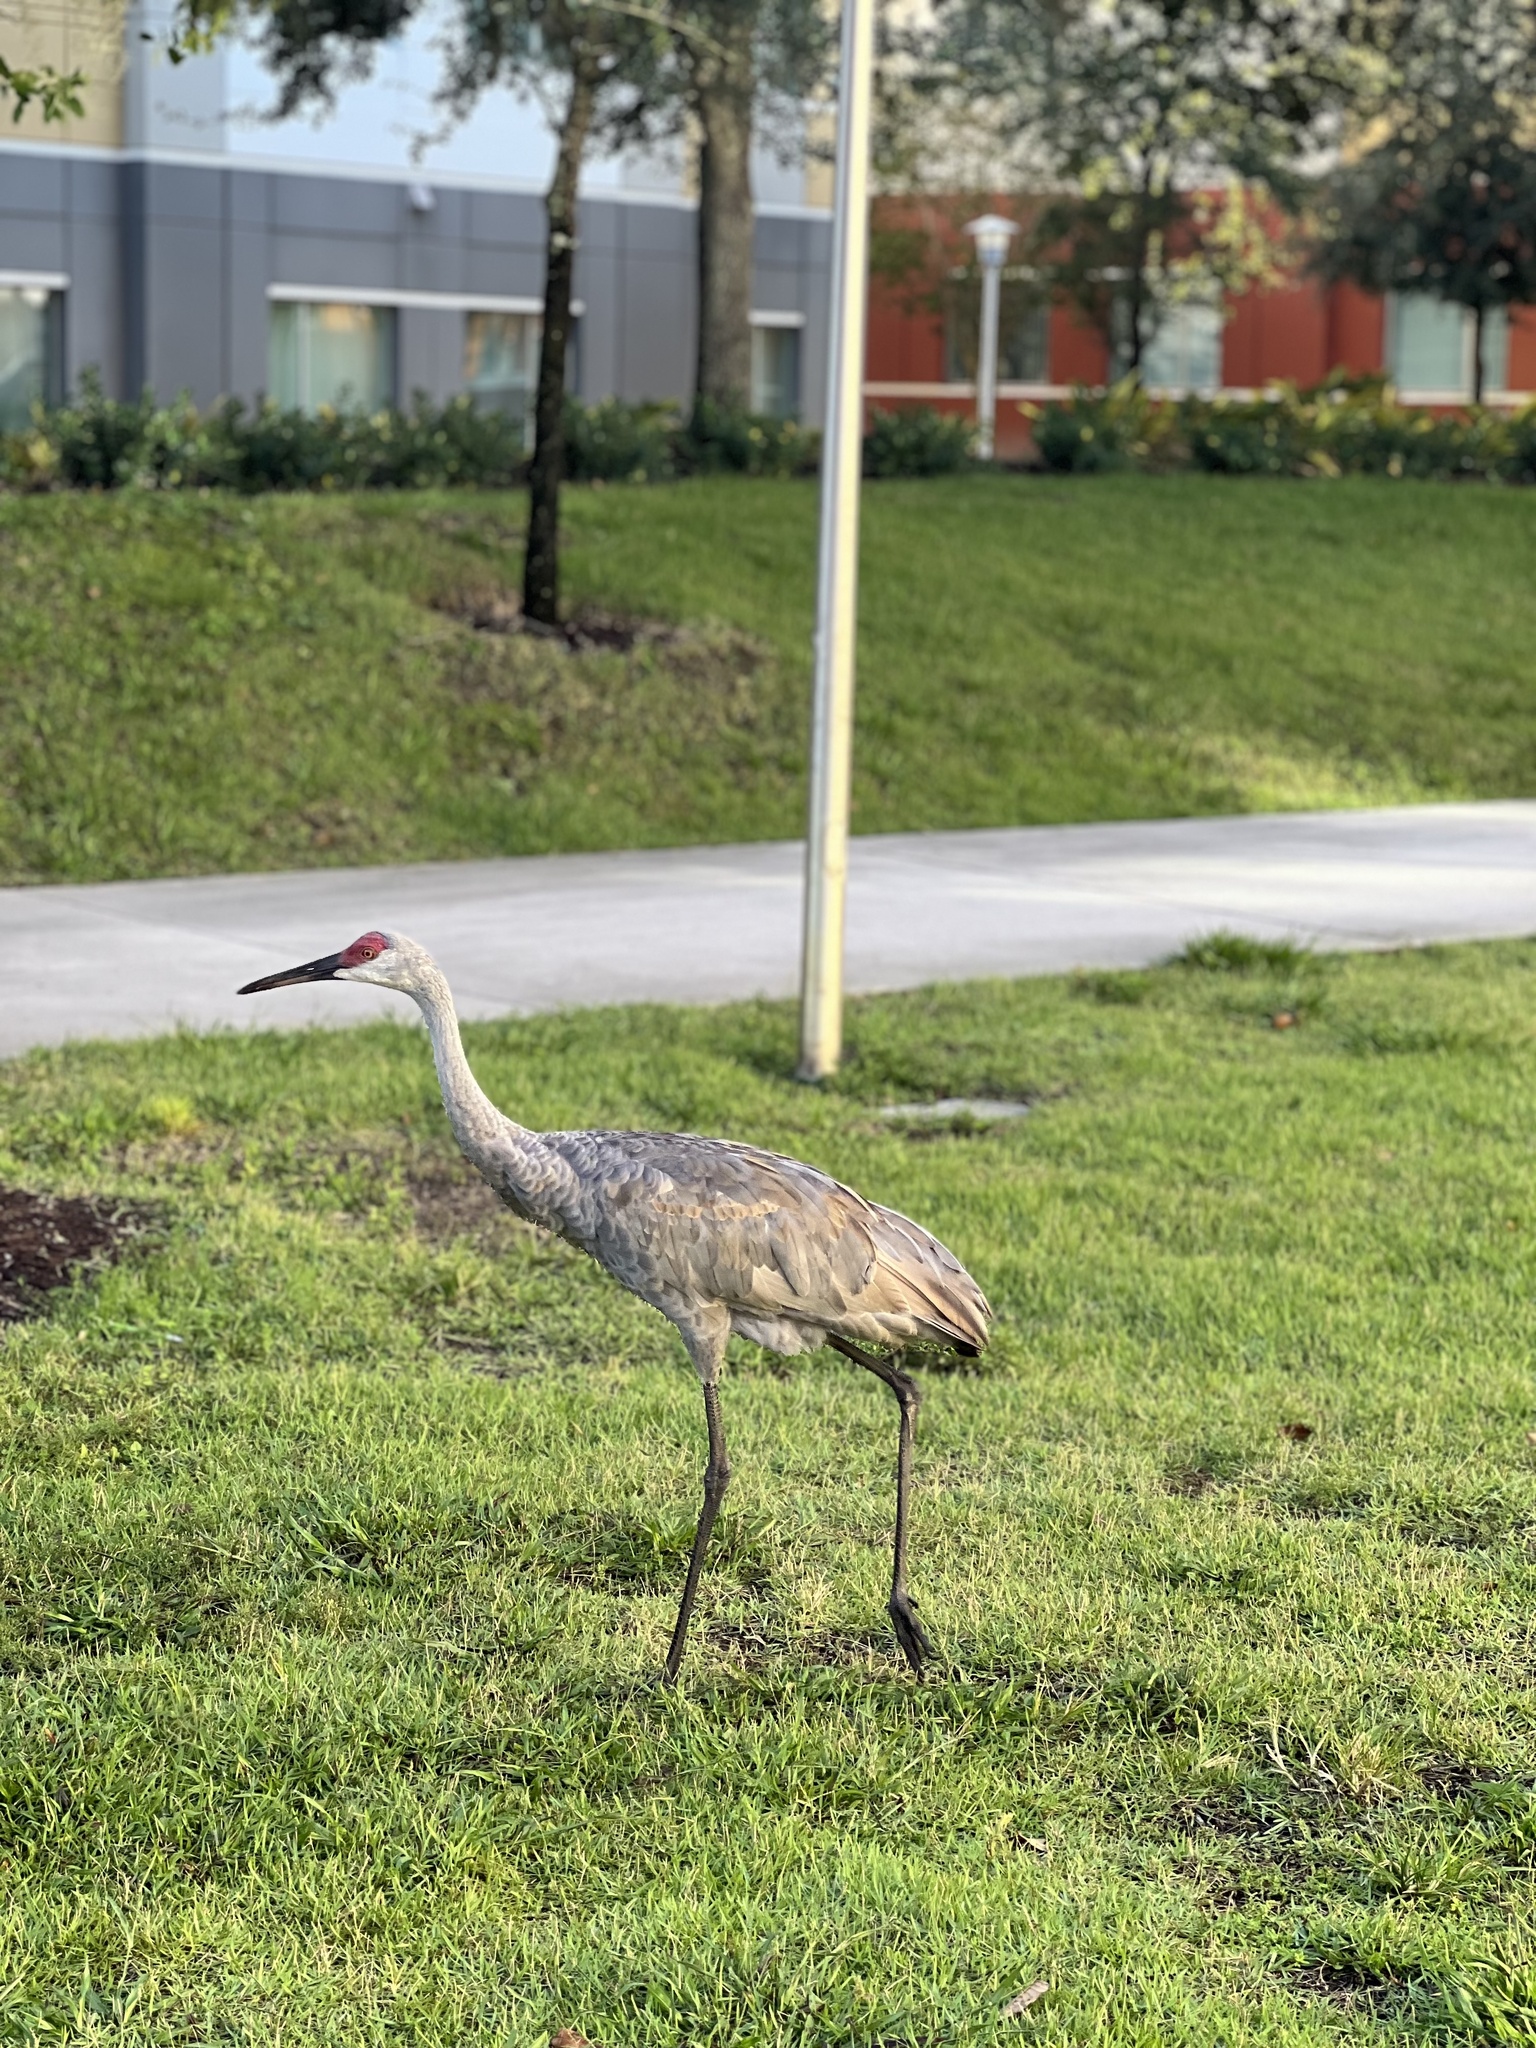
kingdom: Animalia
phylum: Chordata
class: Aves
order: Gruiformes
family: Gruidae
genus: Grus
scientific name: Grus canadensis
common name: Sandhill crane
